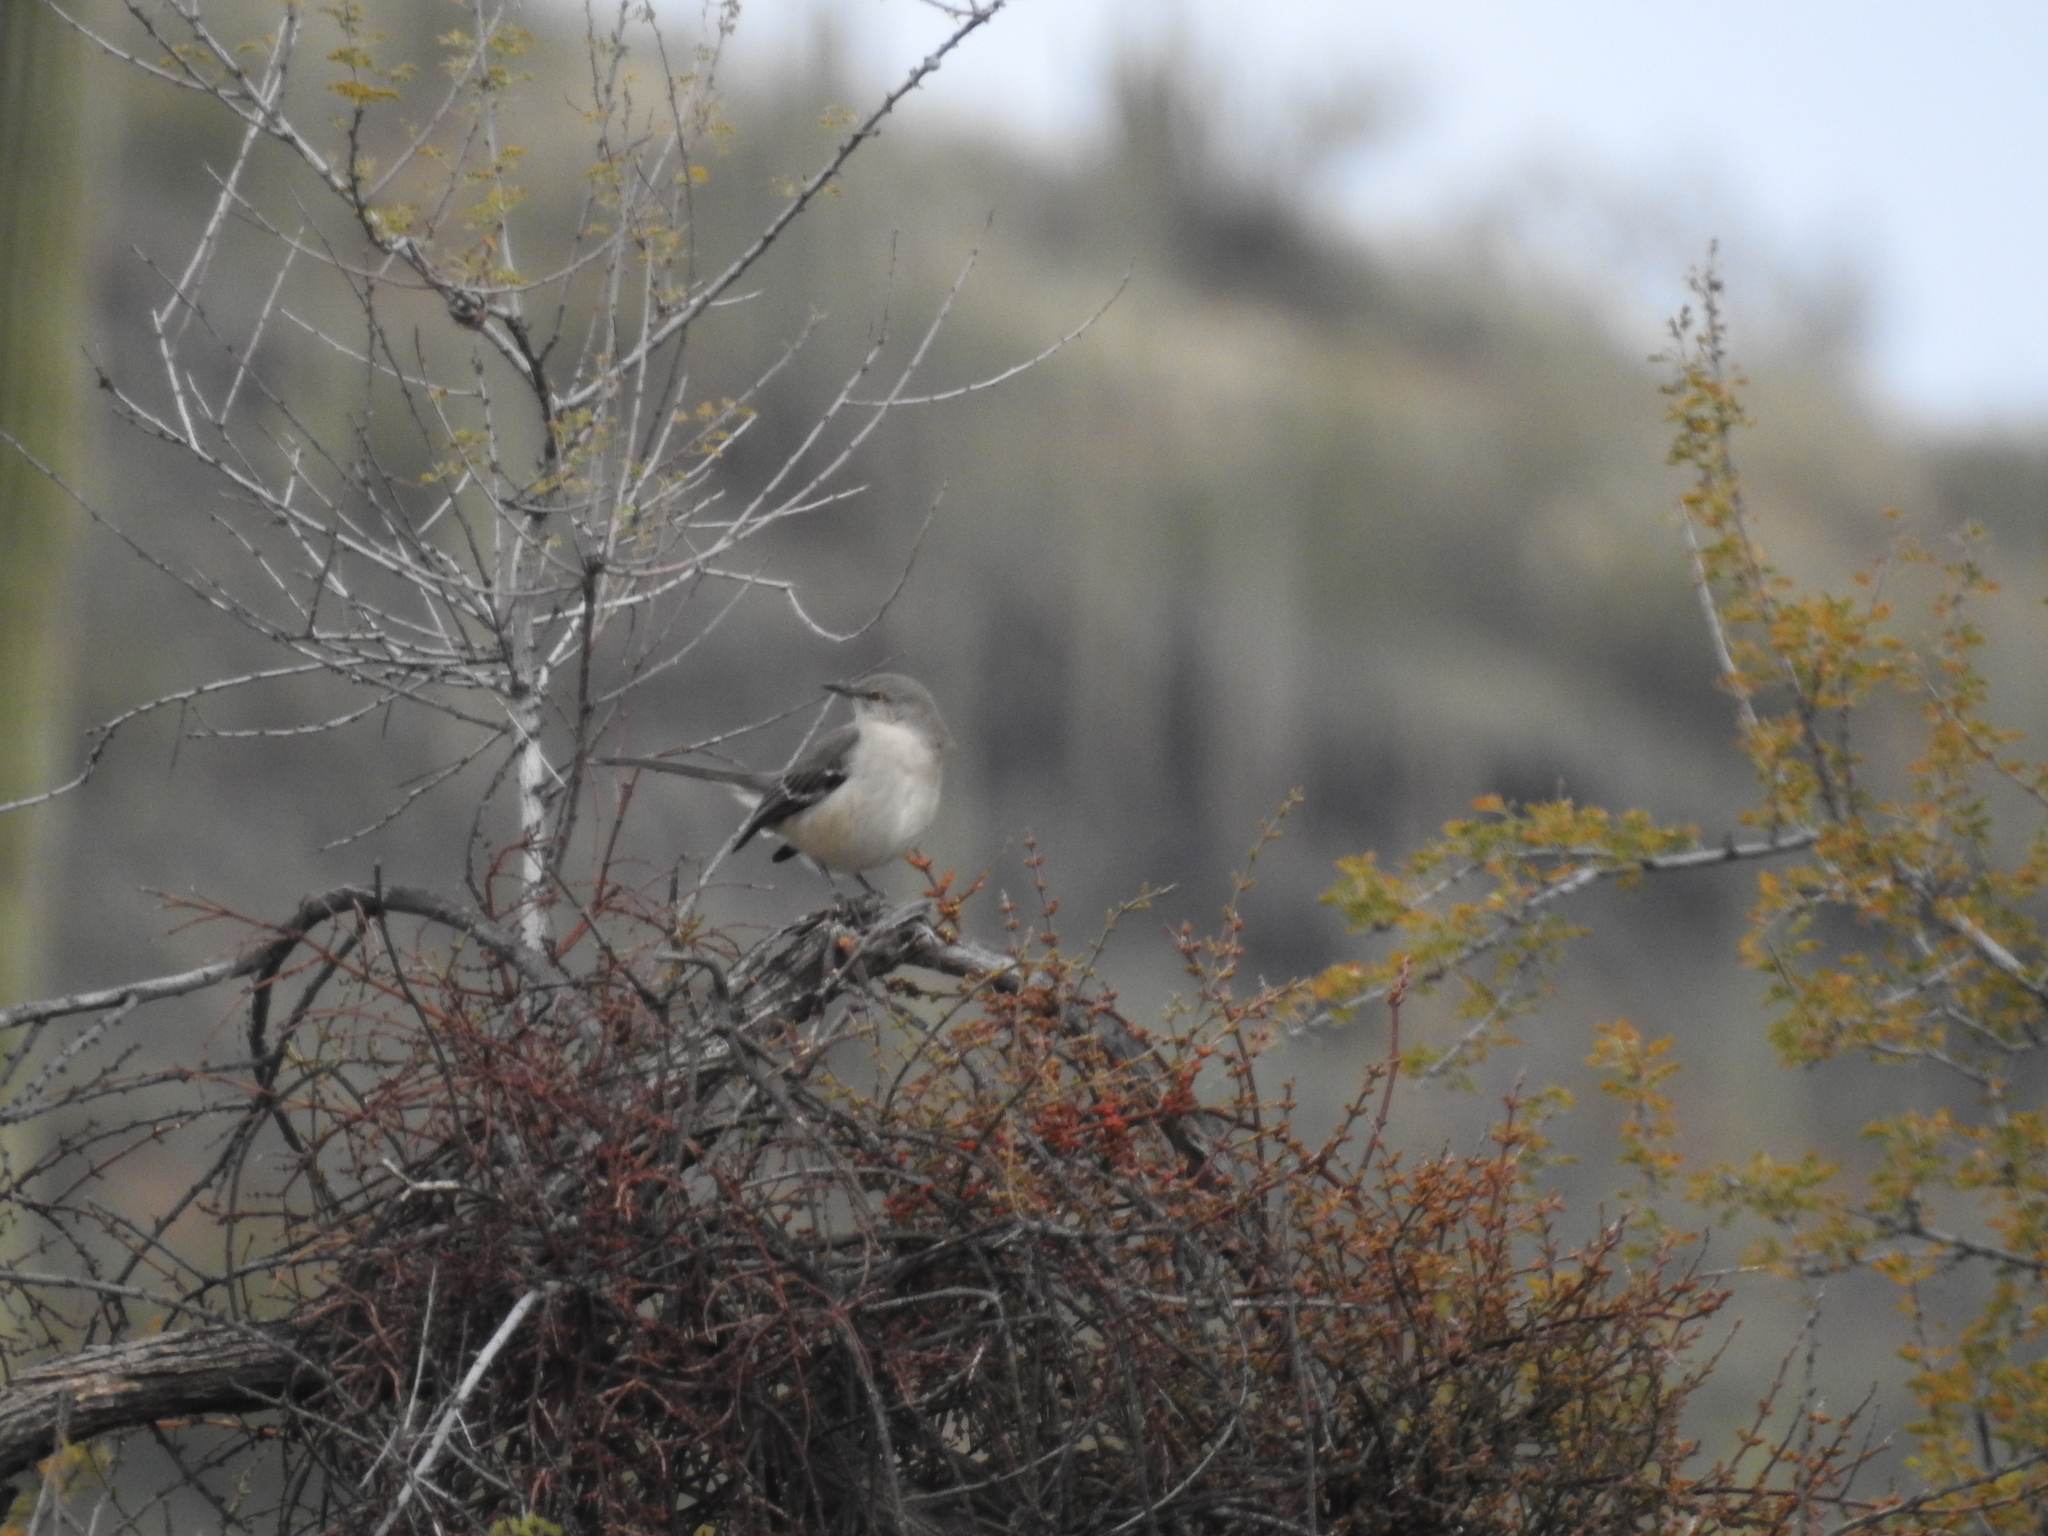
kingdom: Animalia
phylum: Chordata
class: Aves
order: Passeriformes
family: Mimidae
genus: Mimus
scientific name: Mimus polyglottos
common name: Northern mockingbird
